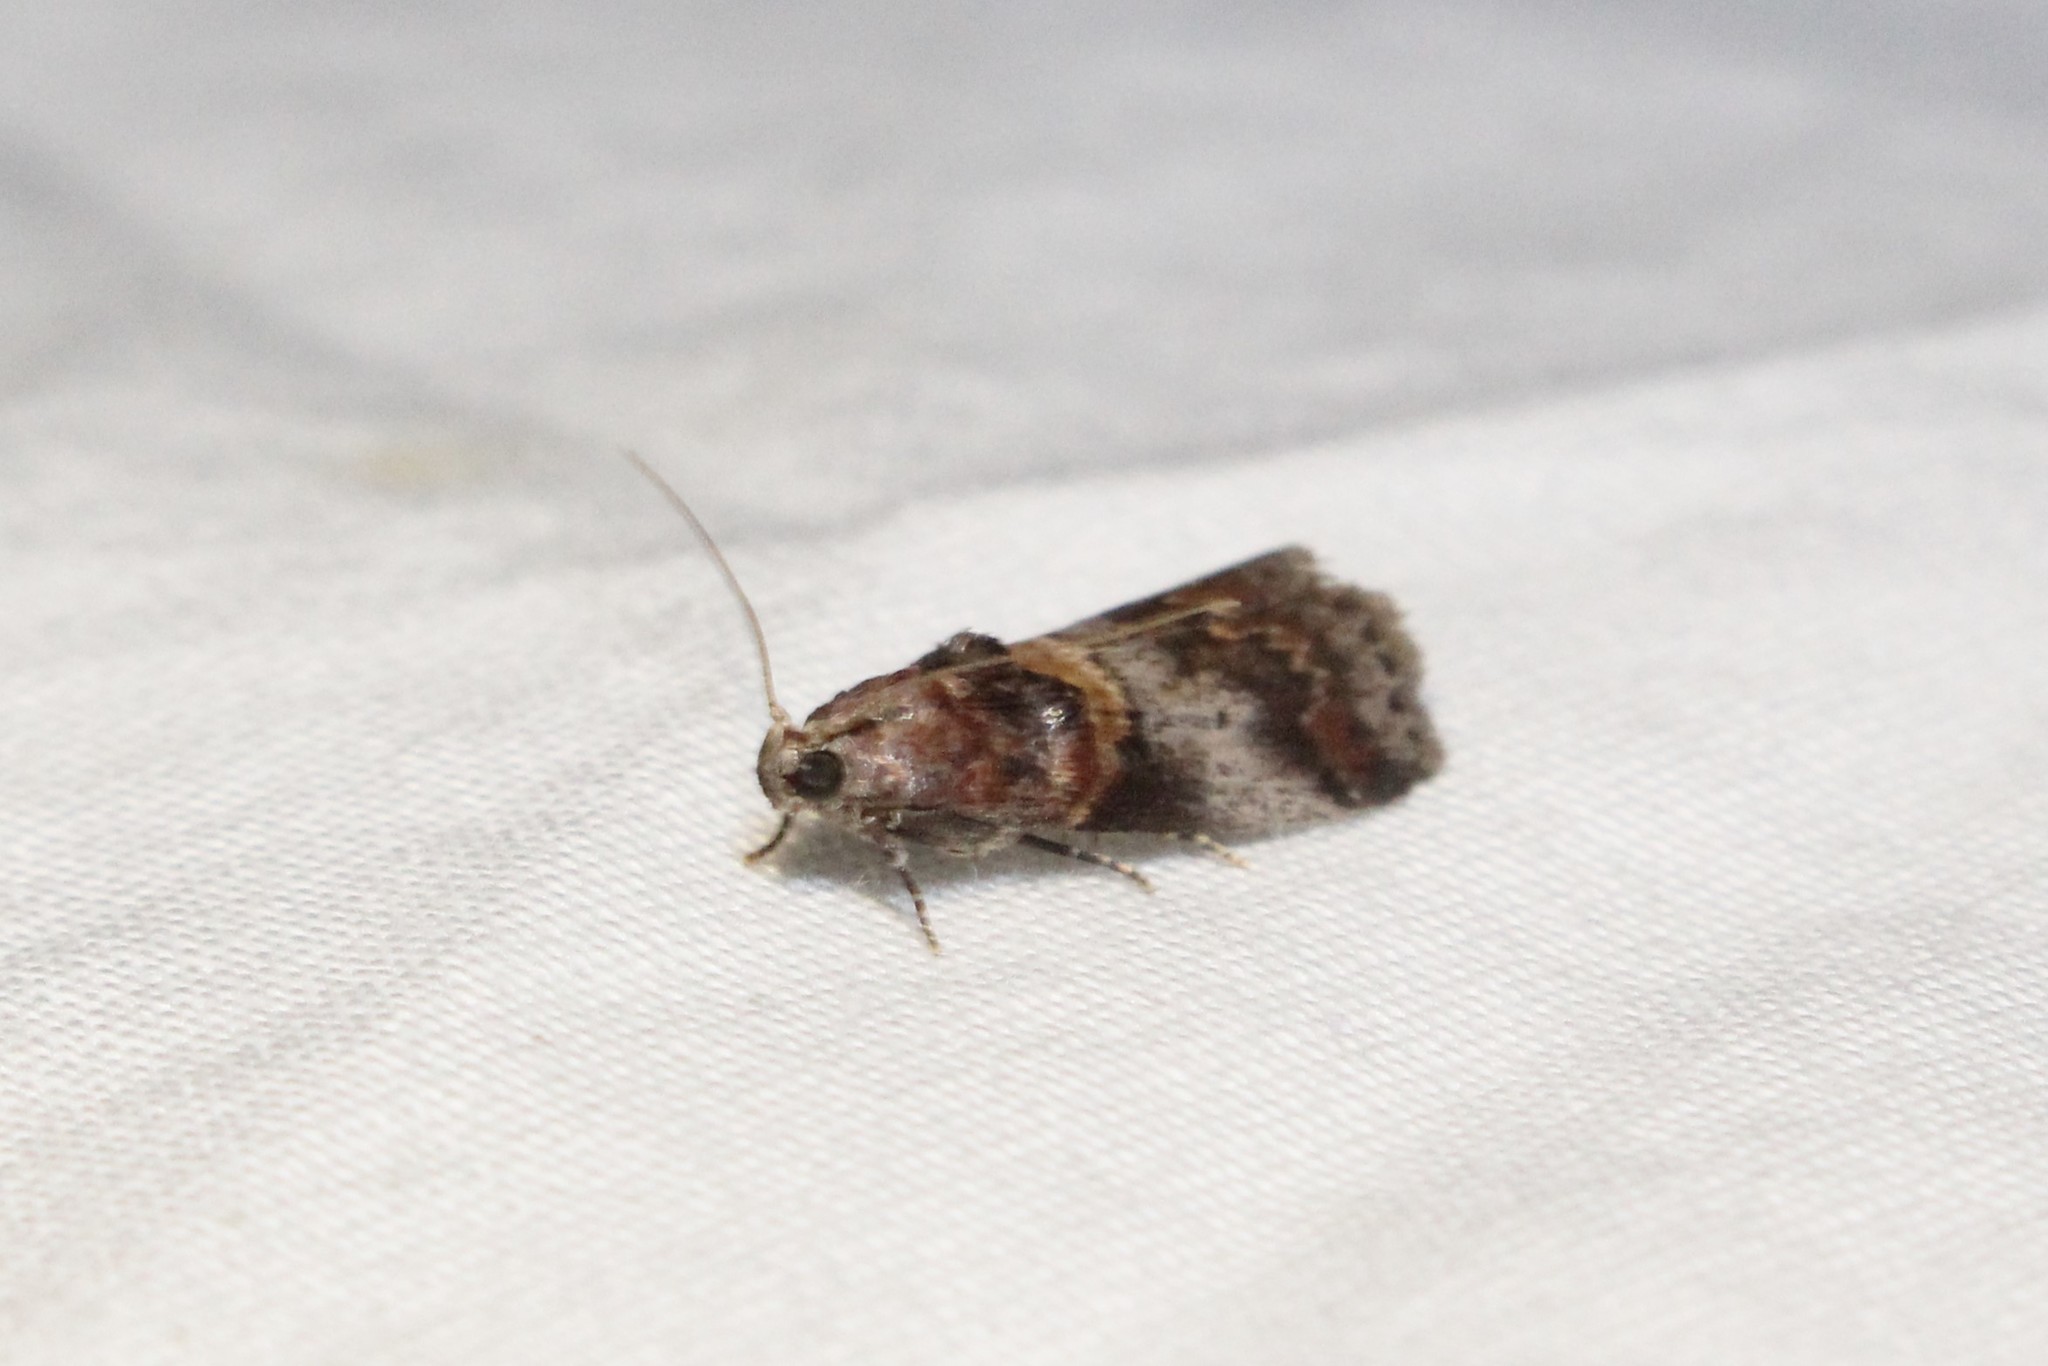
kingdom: Animalia
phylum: Arthropoda
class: Insecta
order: Lepidoptera
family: Pyralidae
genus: Acrobasis
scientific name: Acrobasis angusella
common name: Hickory leafstem borer moth
